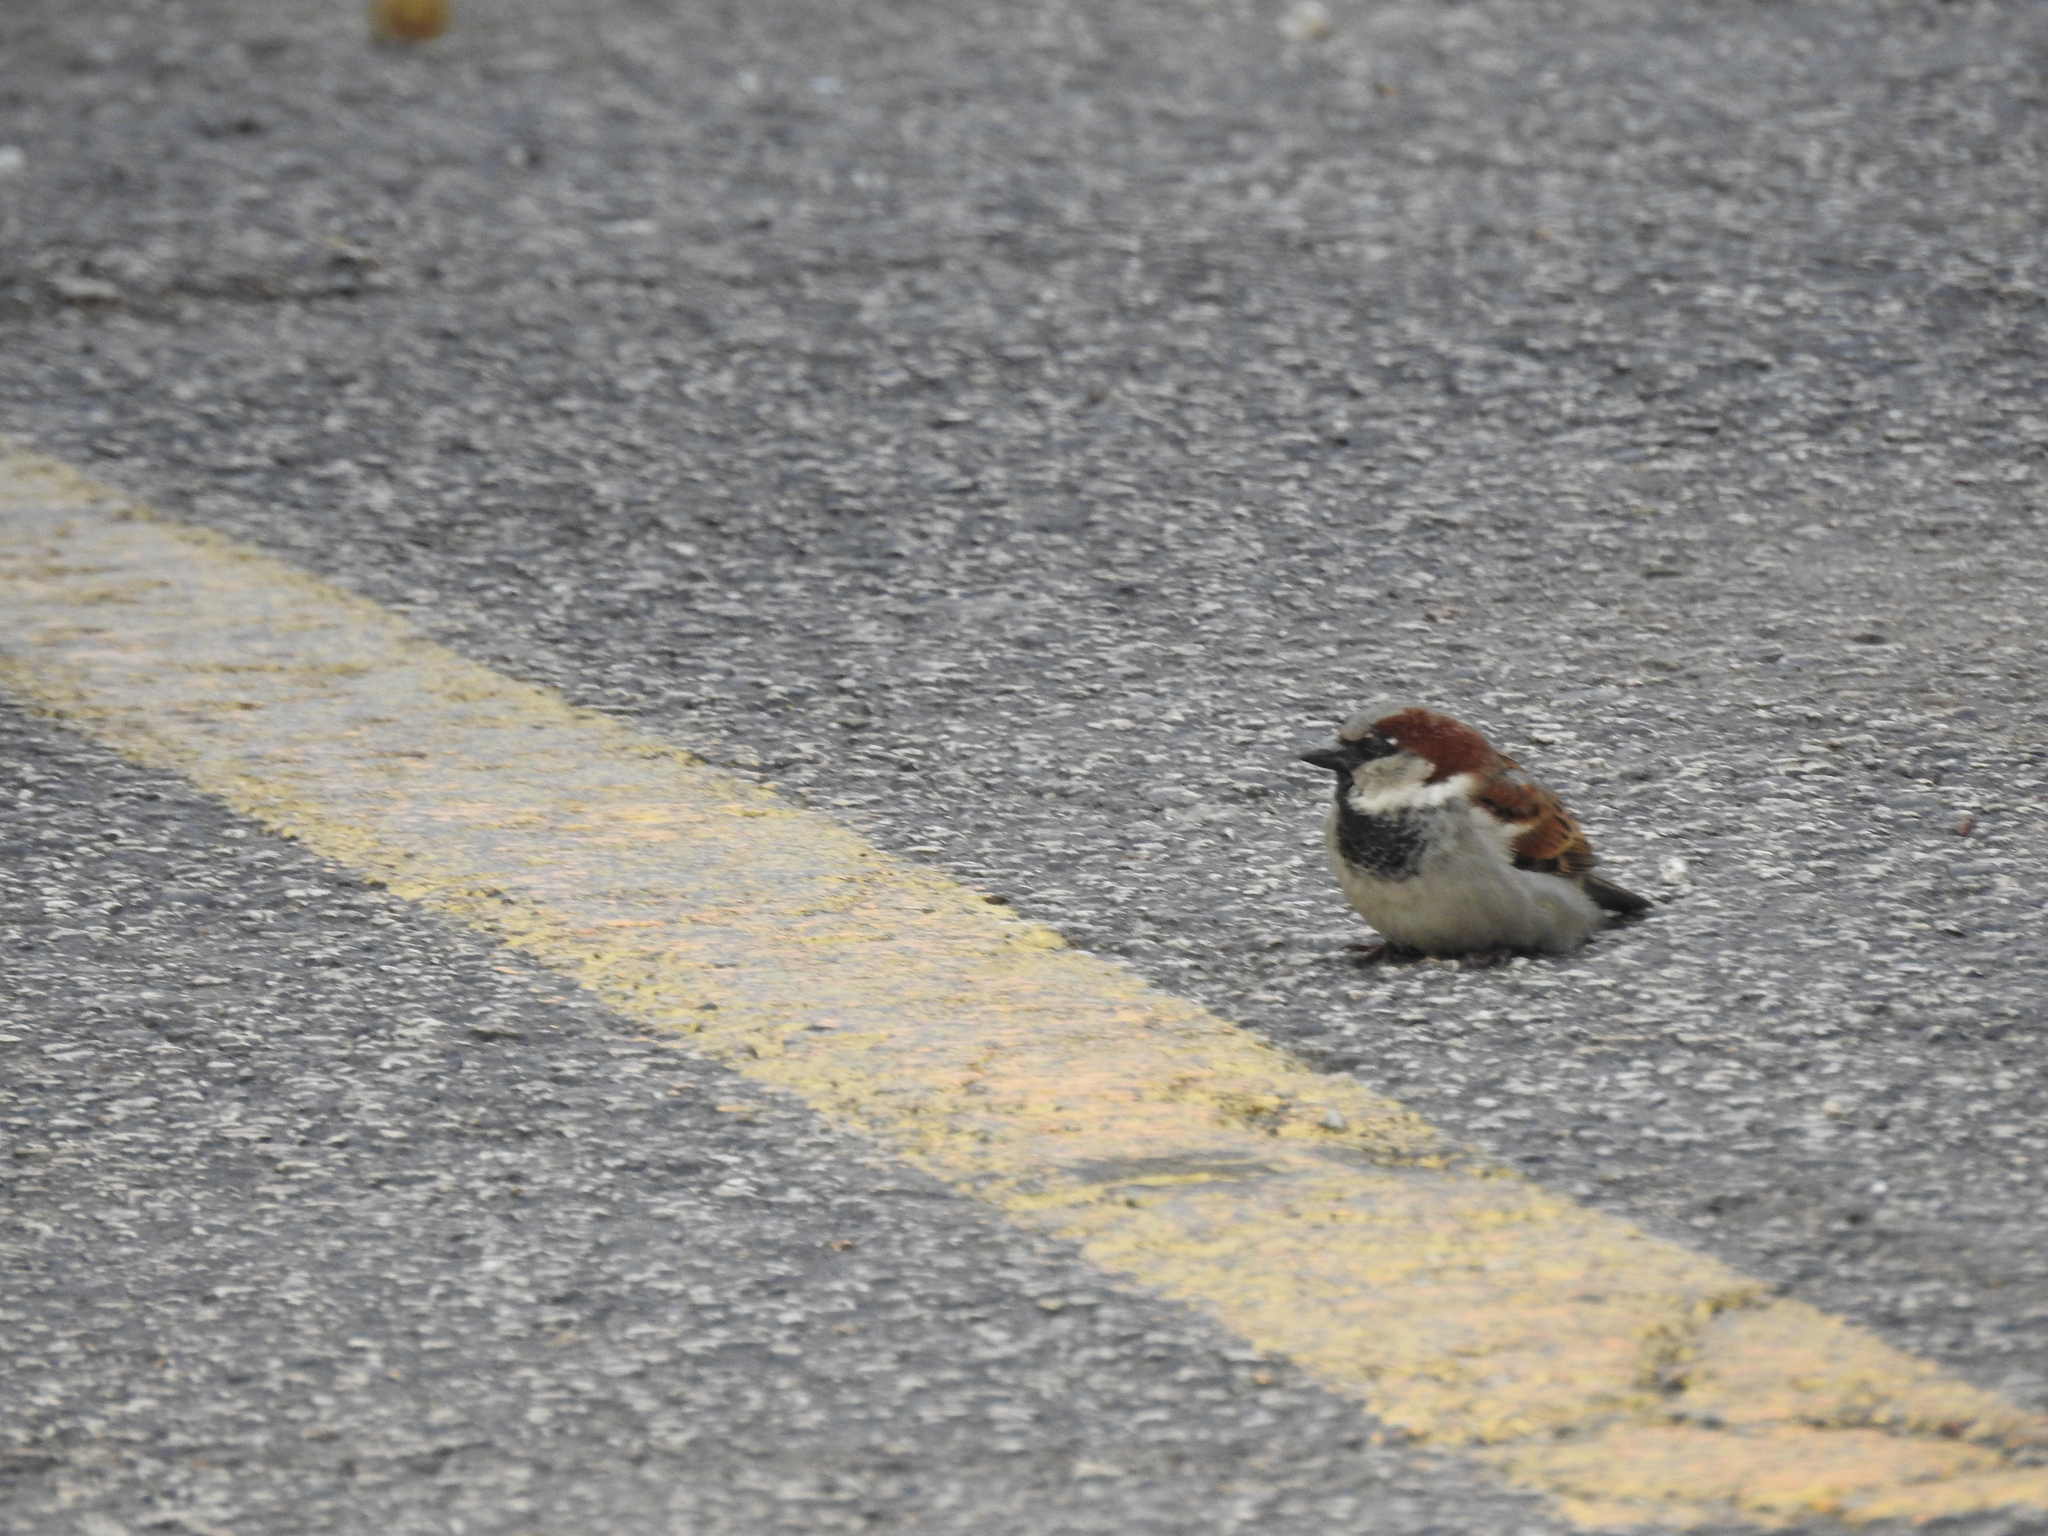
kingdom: Animalia
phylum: Chordata
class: Aves
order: Passeriformes
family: Passeridae
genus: Passer
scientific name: Passer domesticus
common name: House sparrow
